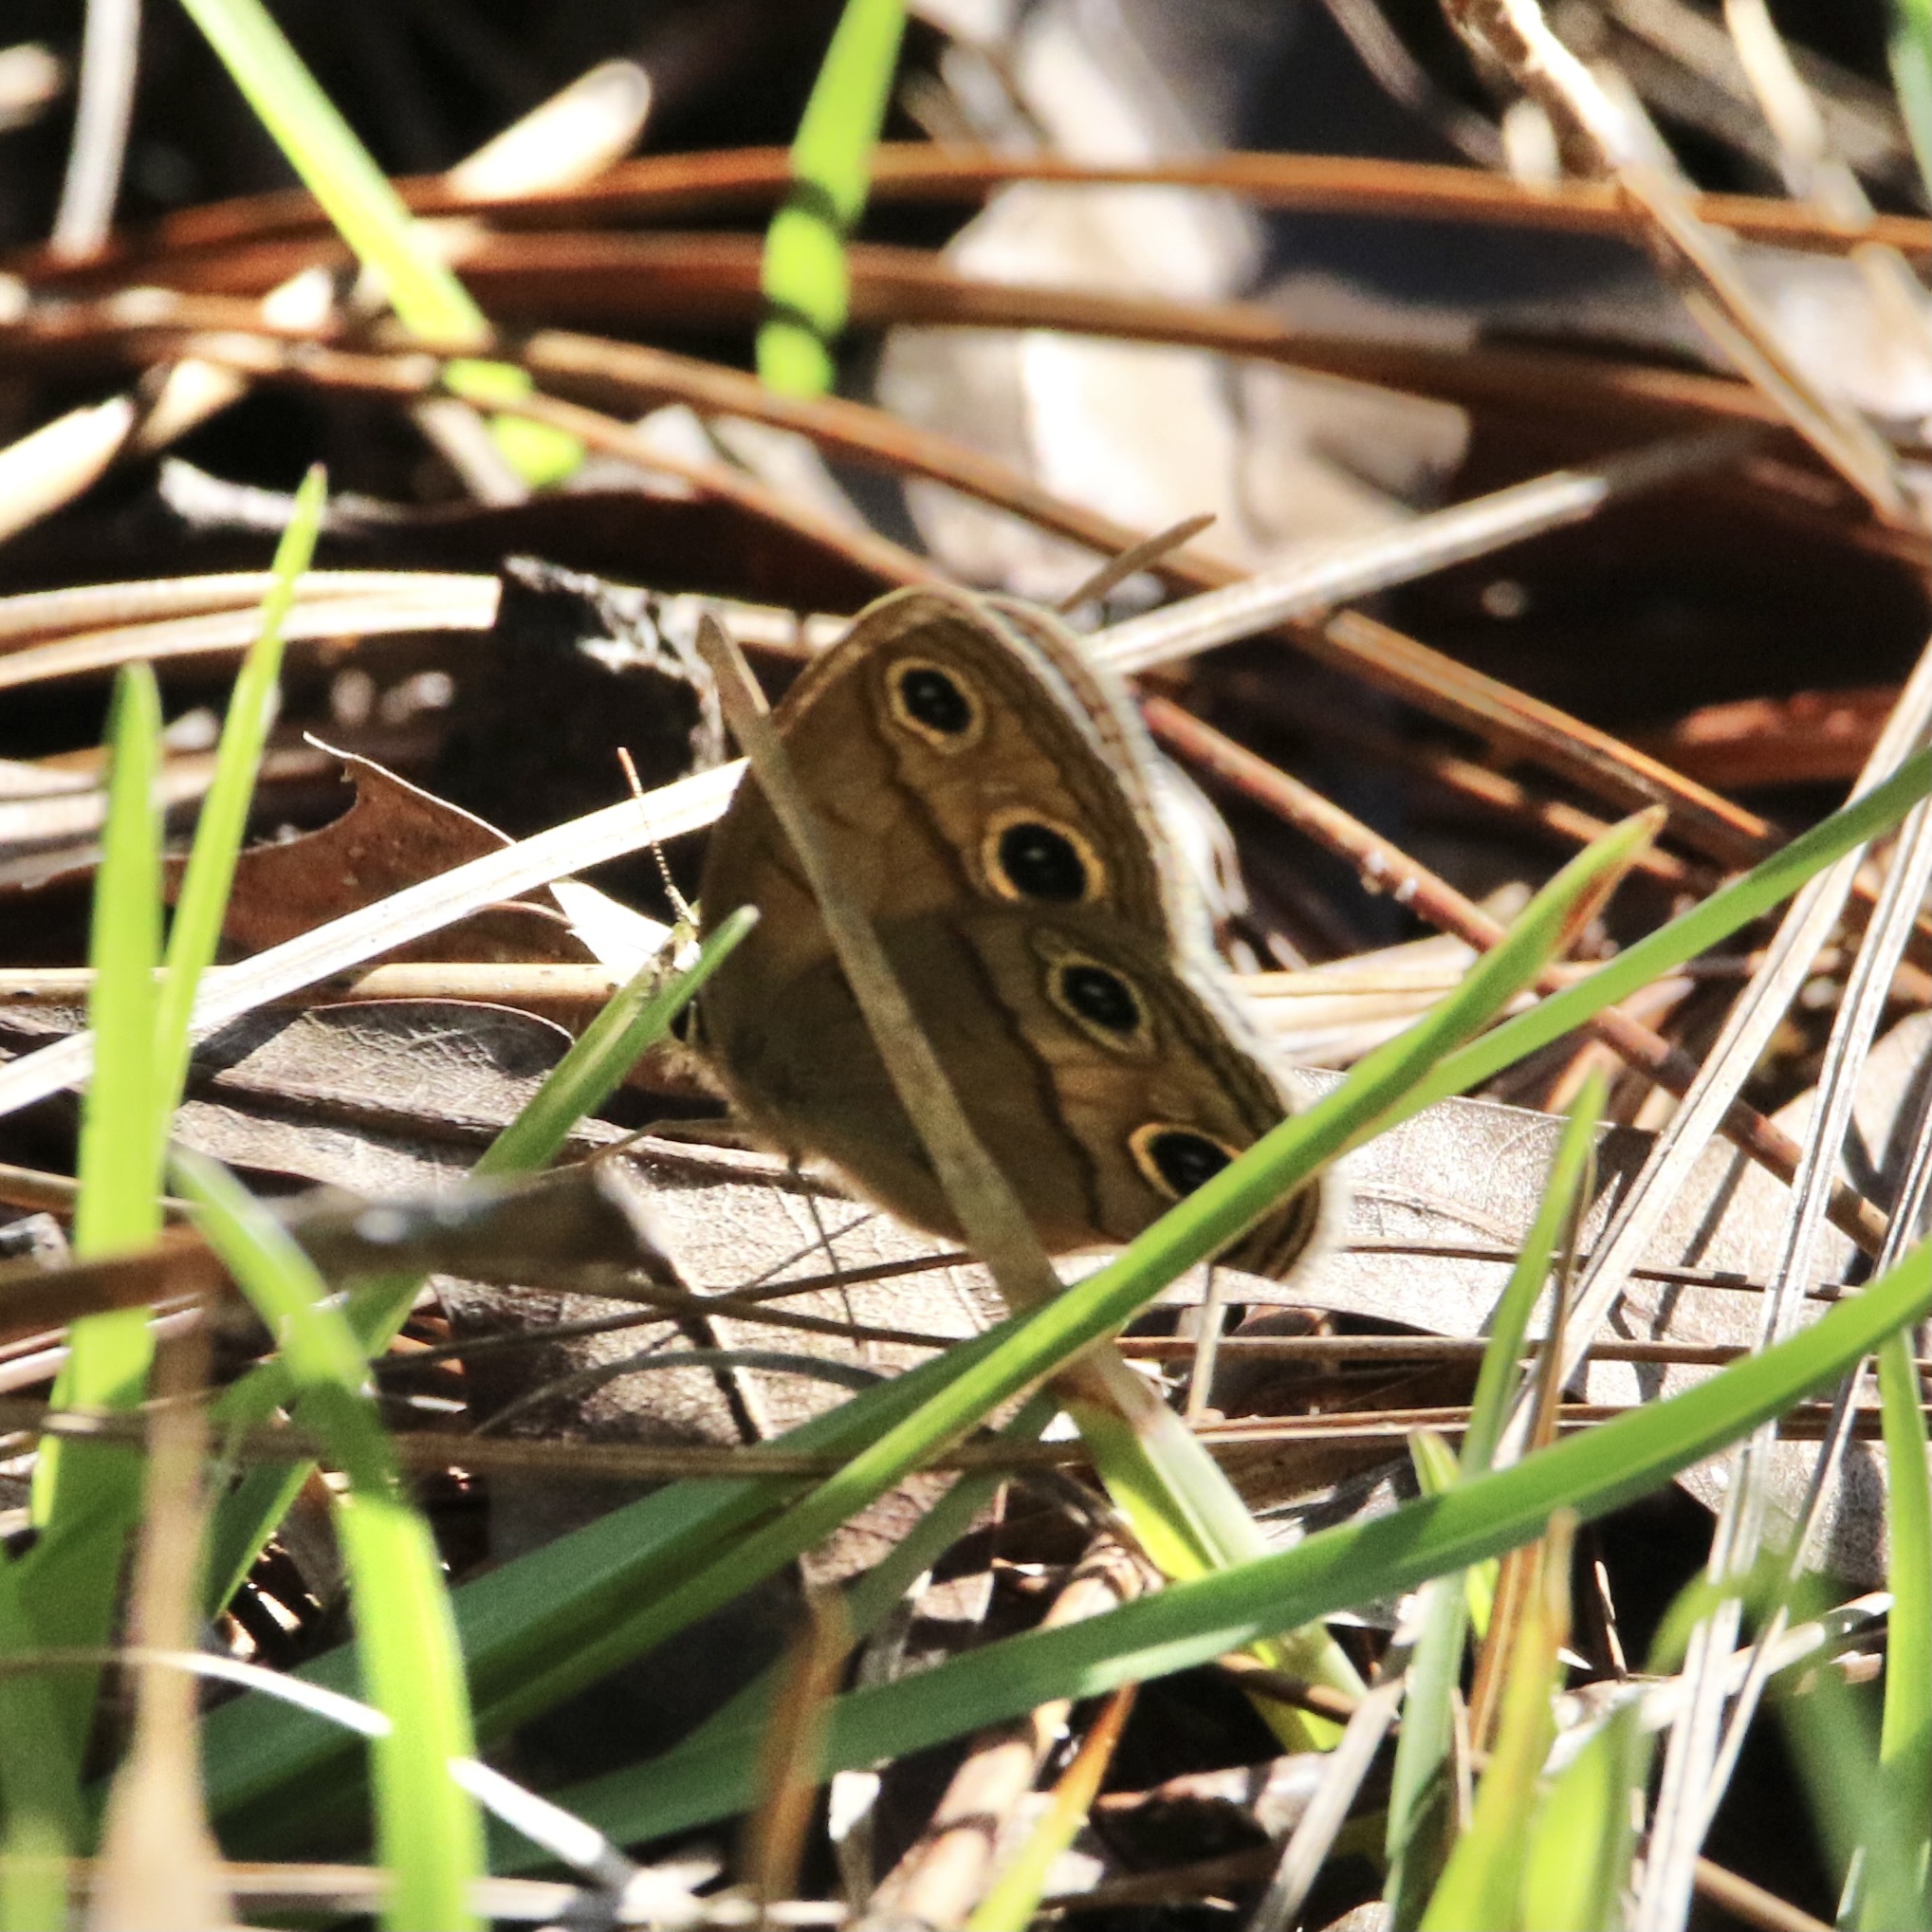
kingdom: Animalia
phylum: Arthropoda
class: Insecta
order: Lepidoptera
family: Nymphalidae
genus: Euptychia
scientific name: Euptychia cymela
